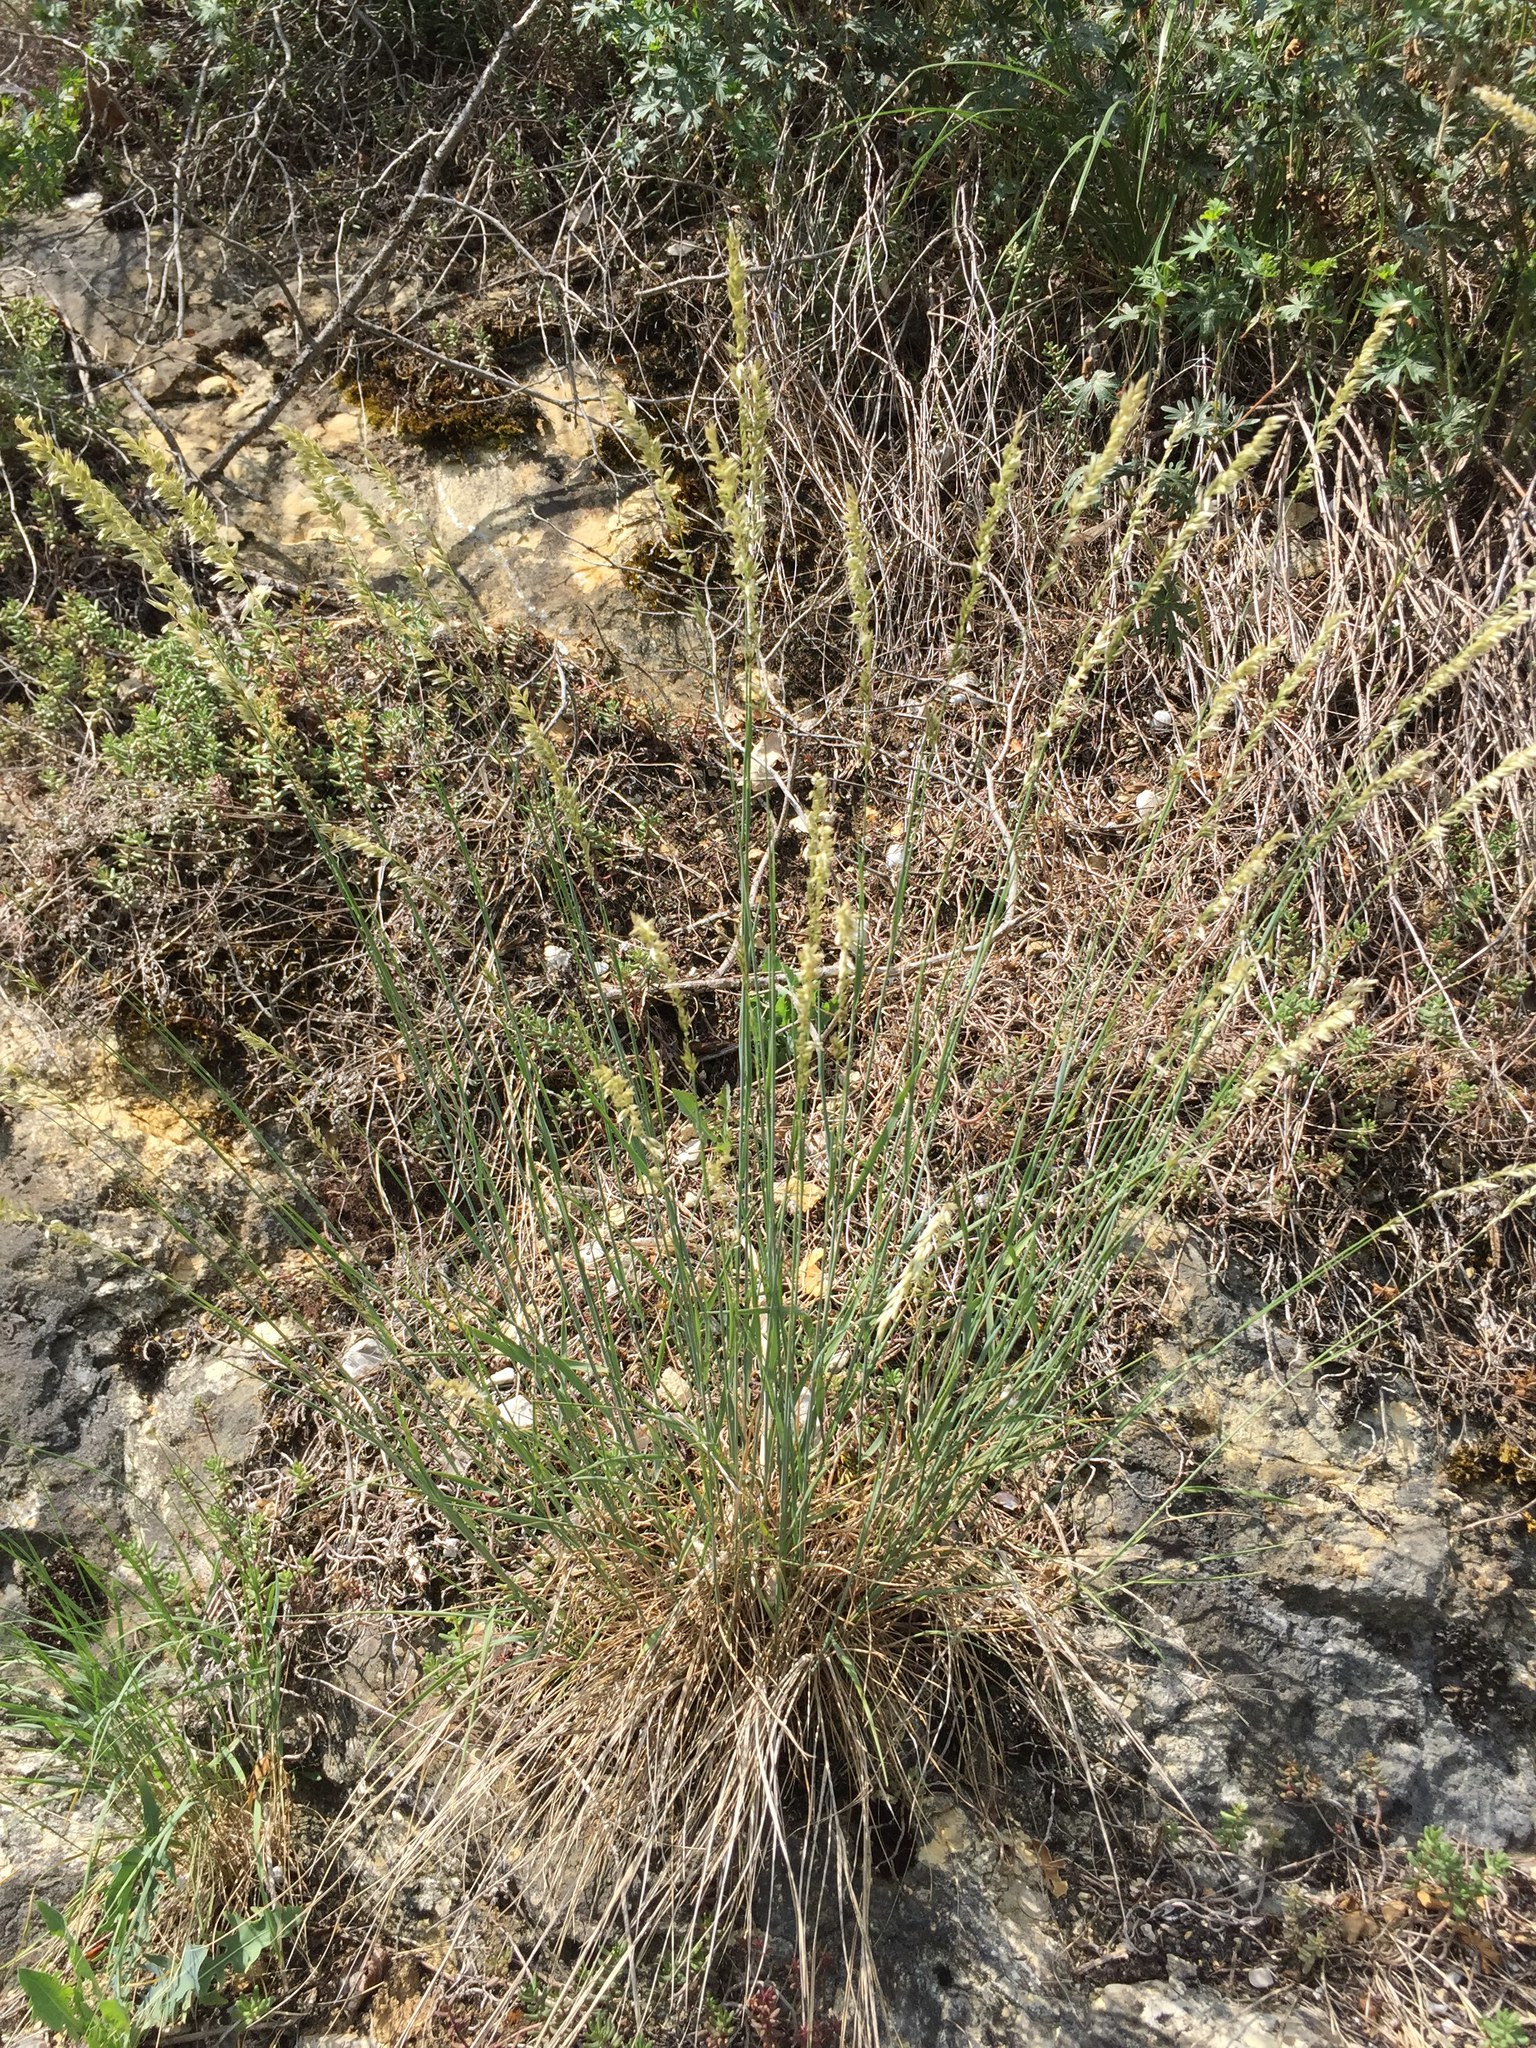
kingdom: Plantae
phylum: Tracheophyta
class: Liliopsida
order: Poales
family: Poaceae
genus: Melica
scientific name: Melica ciliata
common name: Hairy melicgrass
